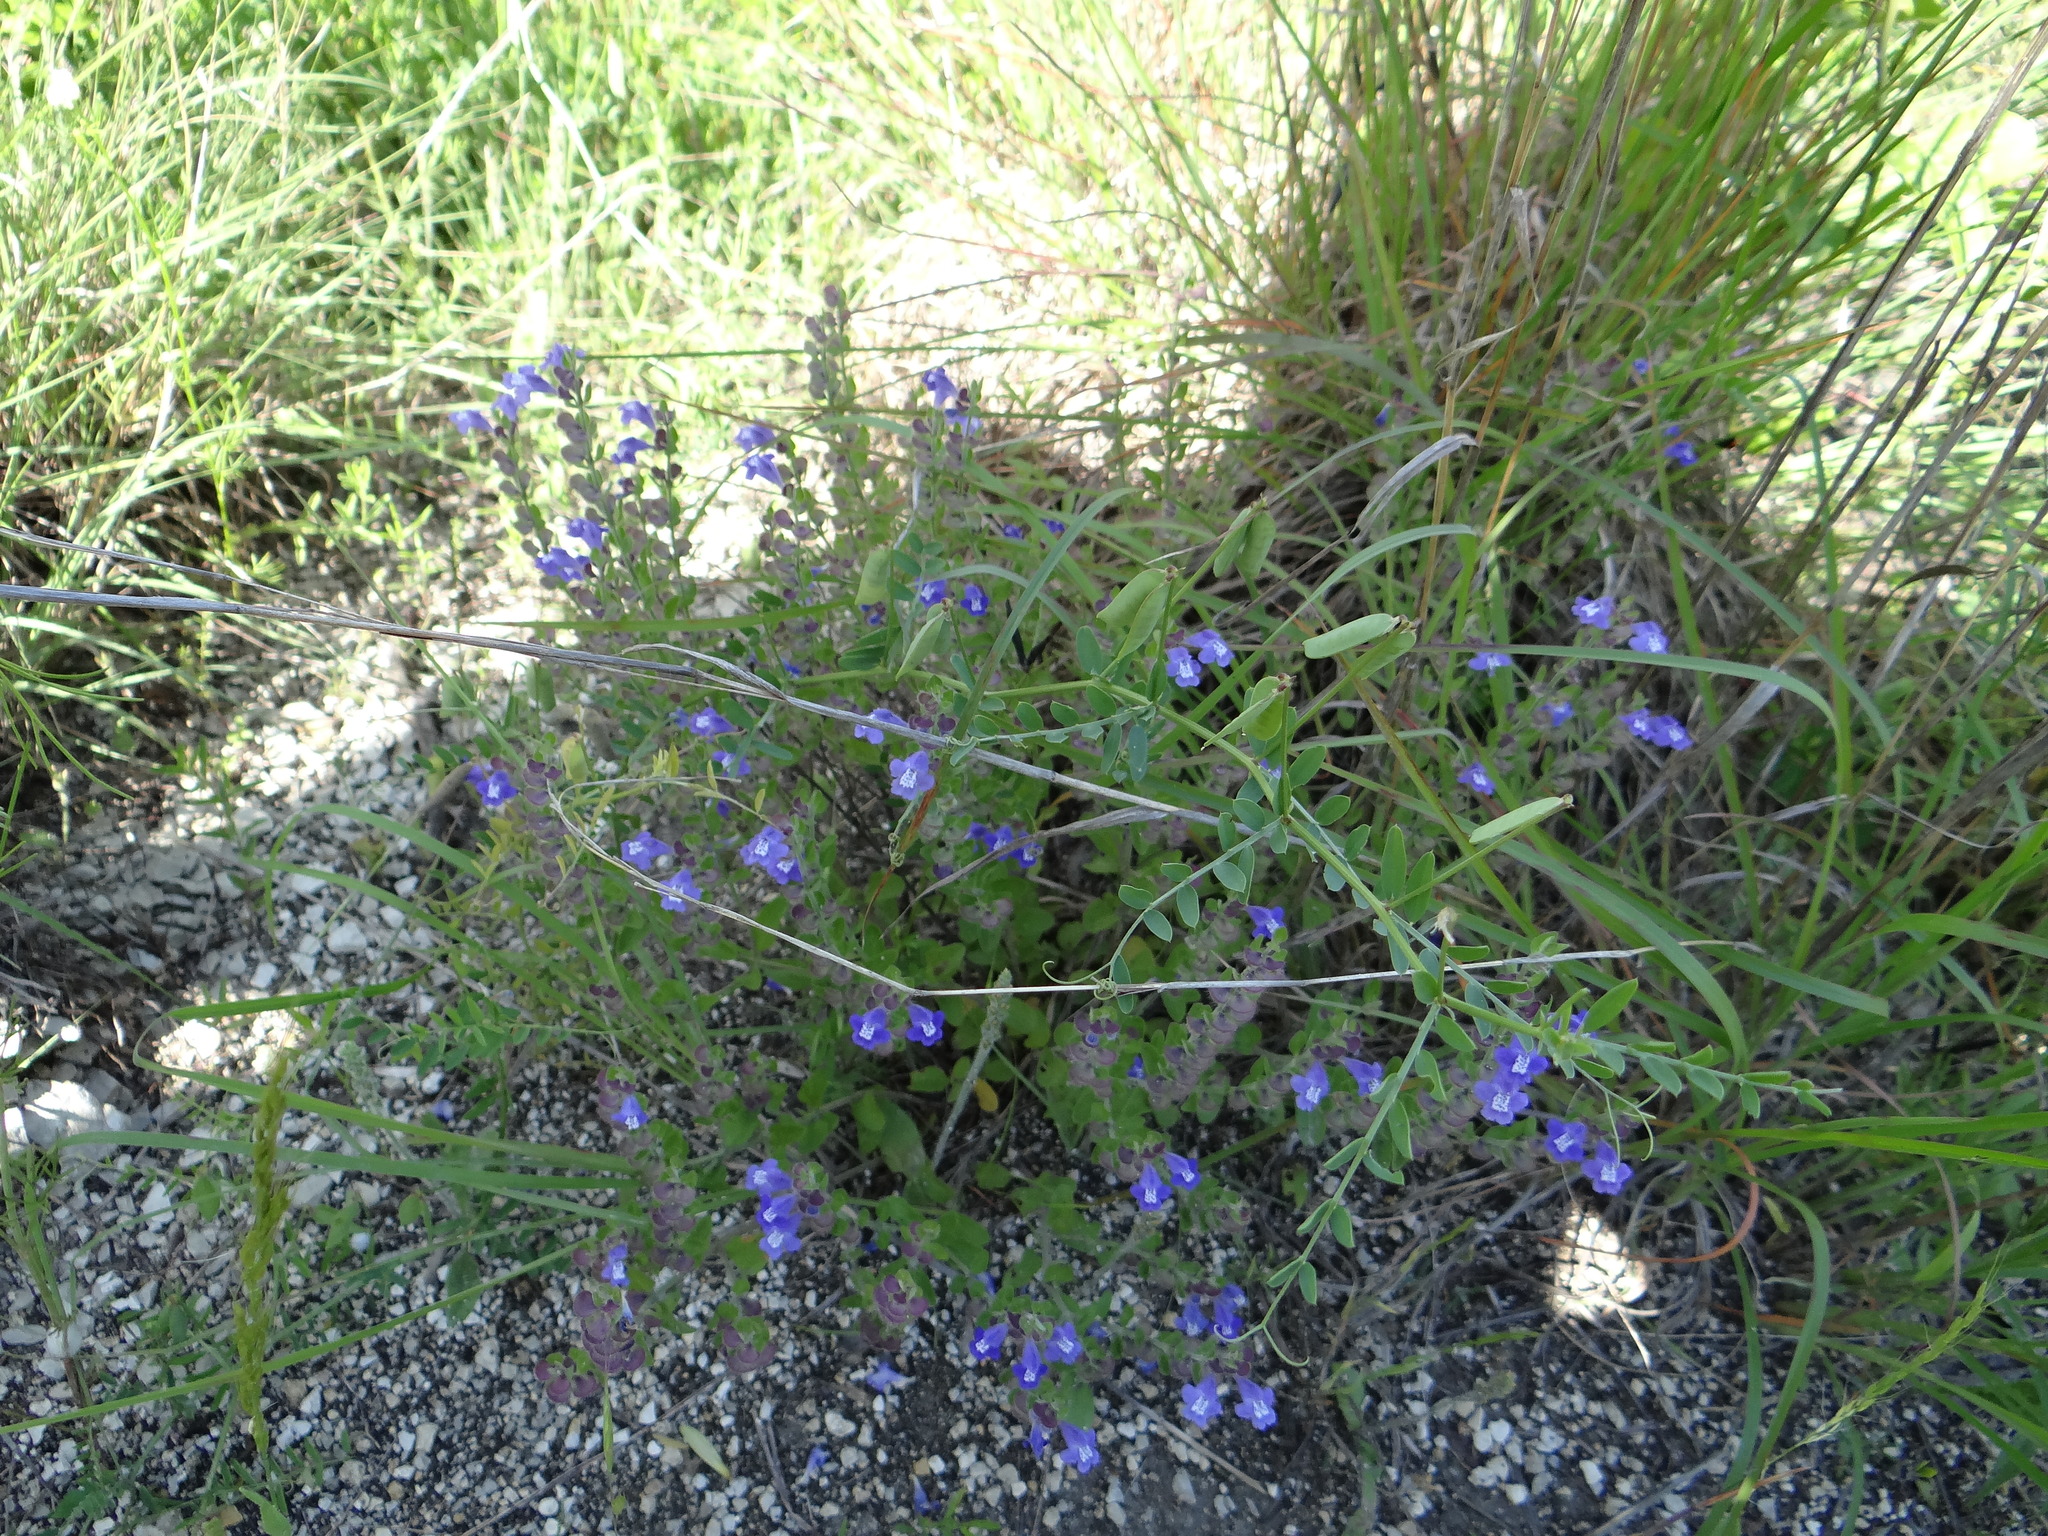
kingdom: Plantae
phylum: Tracheophyta
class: Magnoliopsida
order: Lamiales
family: Lamiaceae
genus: Scutellaria
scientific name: Scutellaria drummondii
